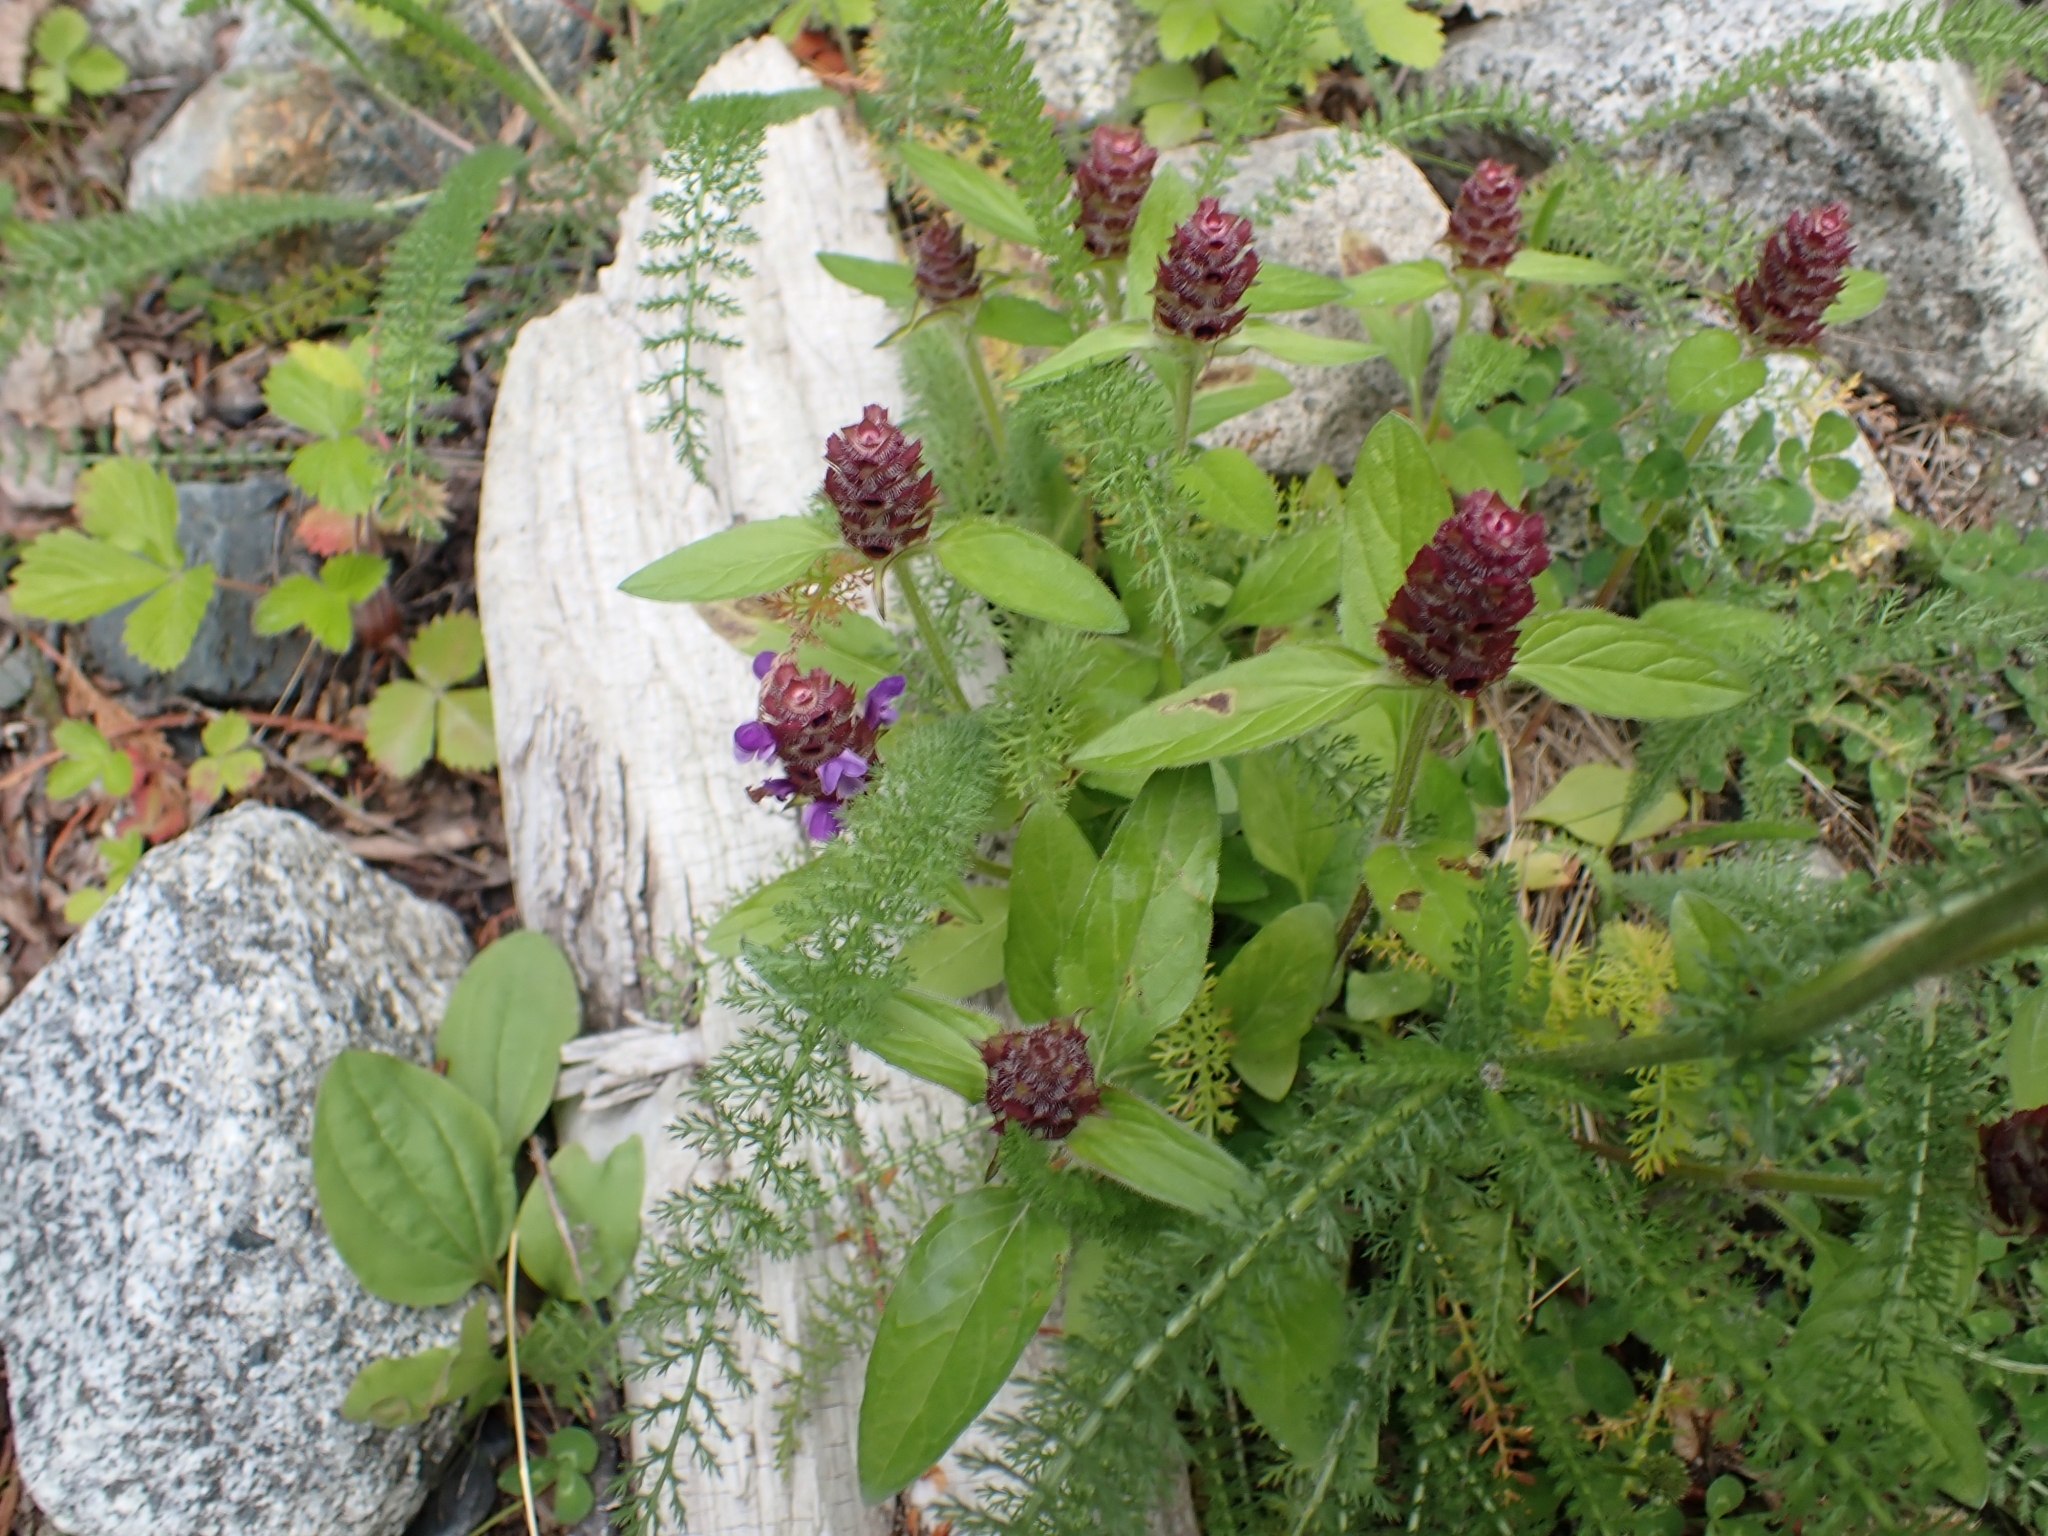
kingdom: Plantae
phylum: Tracheophyta
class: Magnoliopsida
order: Lamiales
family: Lamiaceae
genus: Prunella
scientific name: Prunella vulgaris
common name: Heal-all
